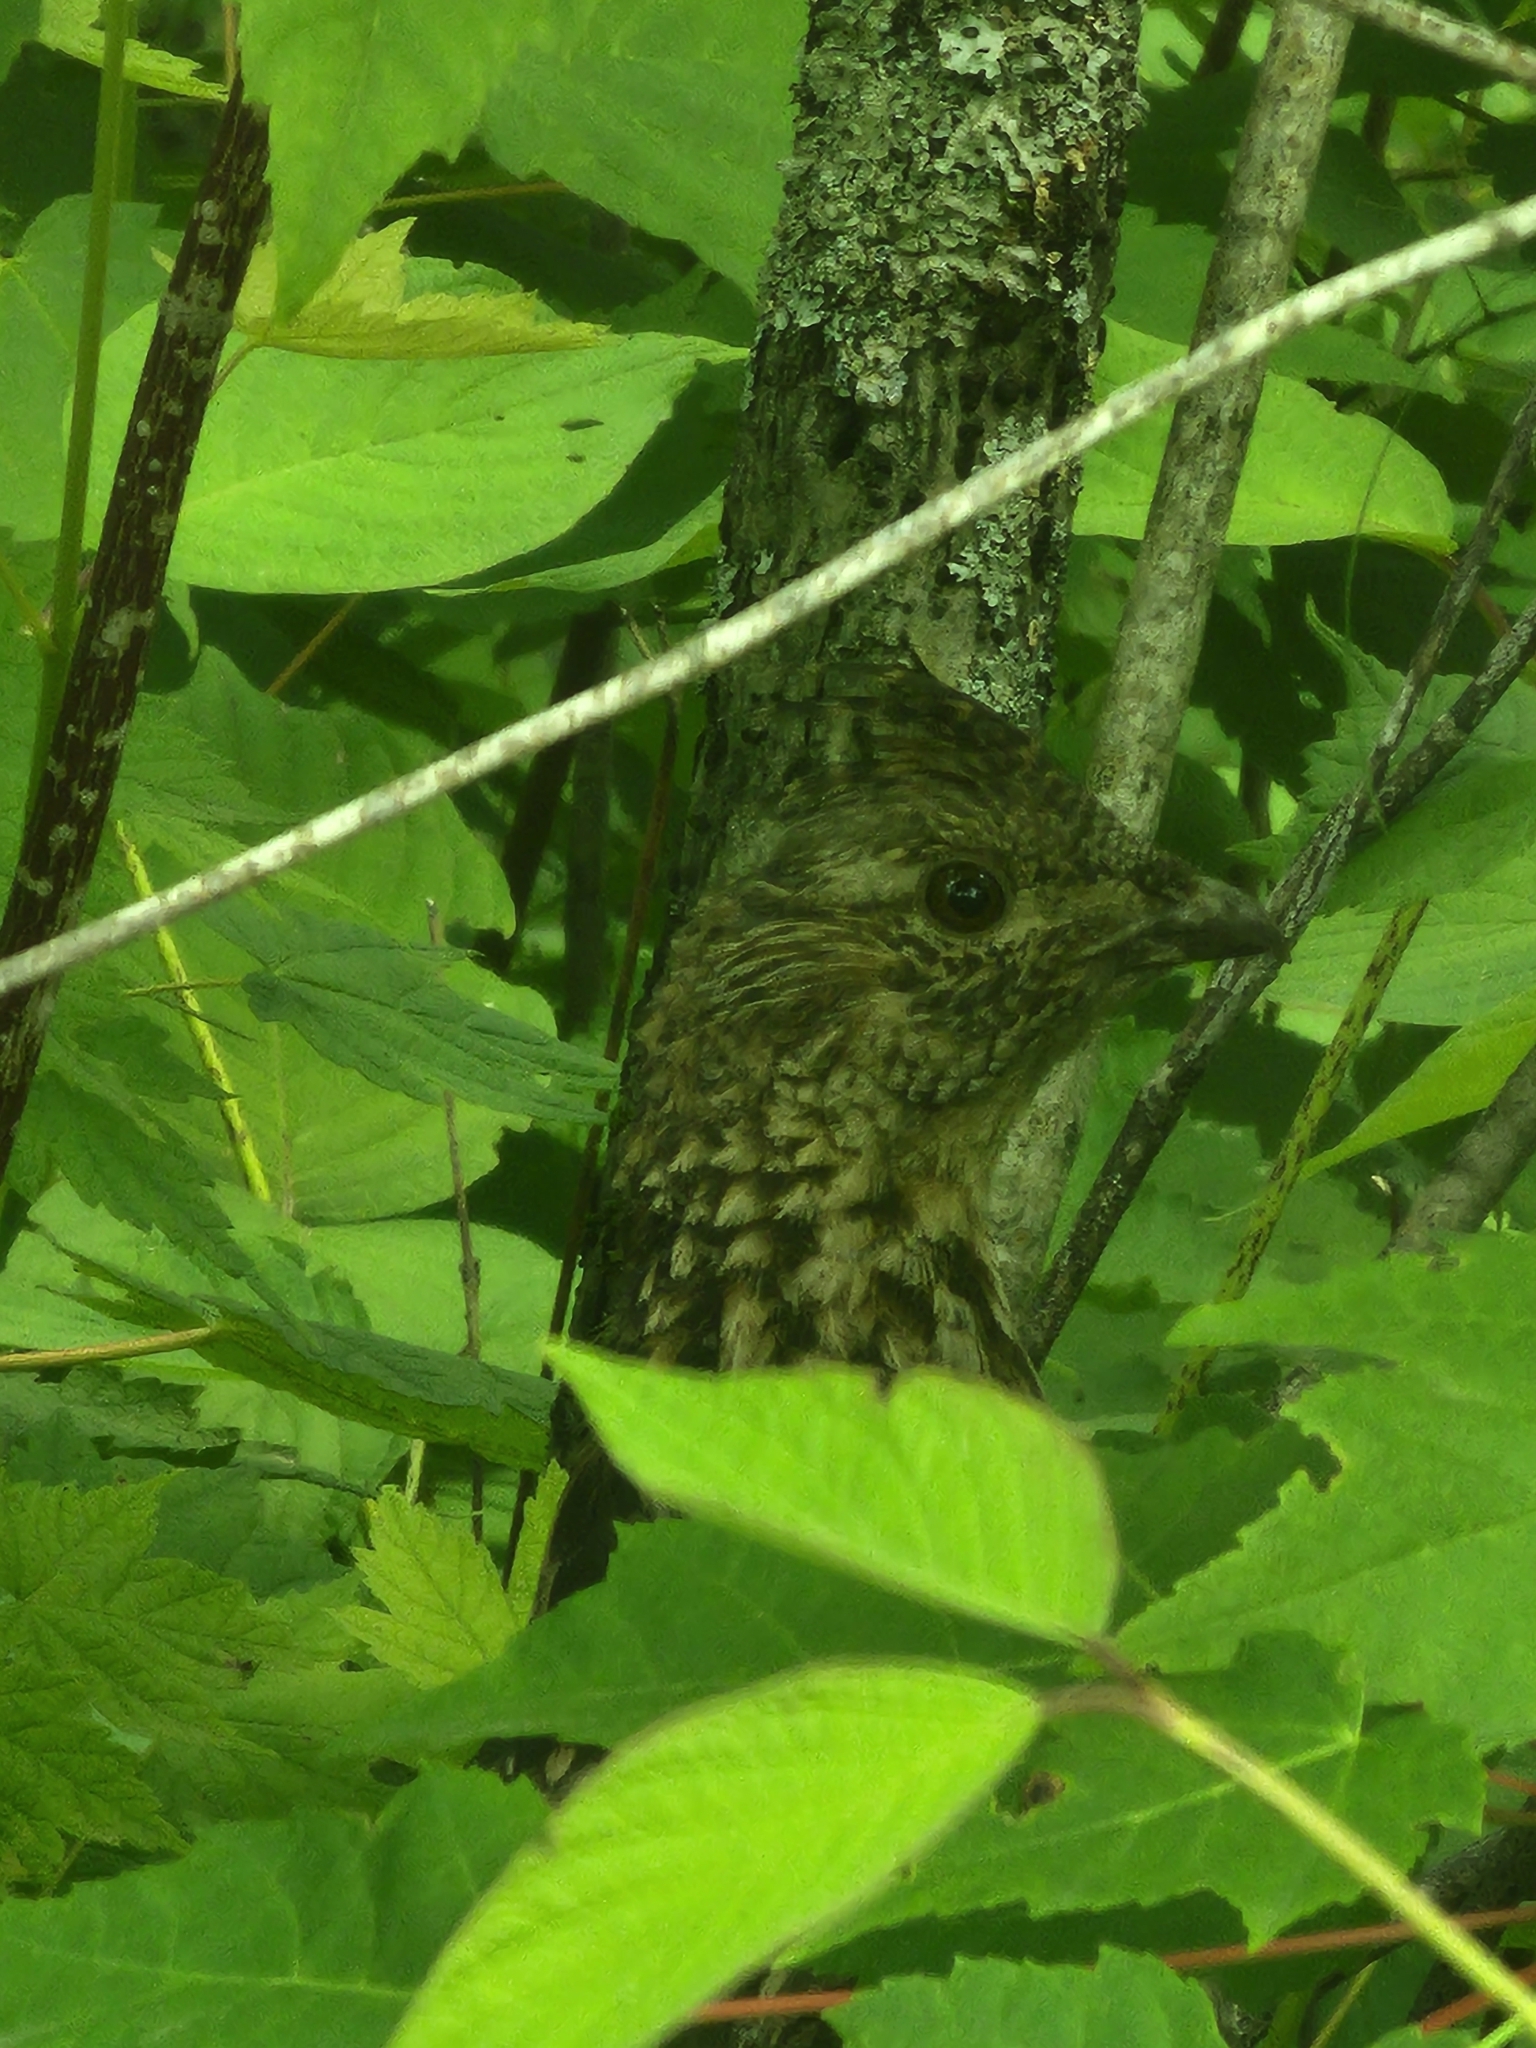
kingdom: Animalia
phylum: Chordata
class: Aves
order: Galliformes
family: Phasianidae
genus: Bonasa
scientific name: Bonasa umbellus
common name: Ruffed grouse
